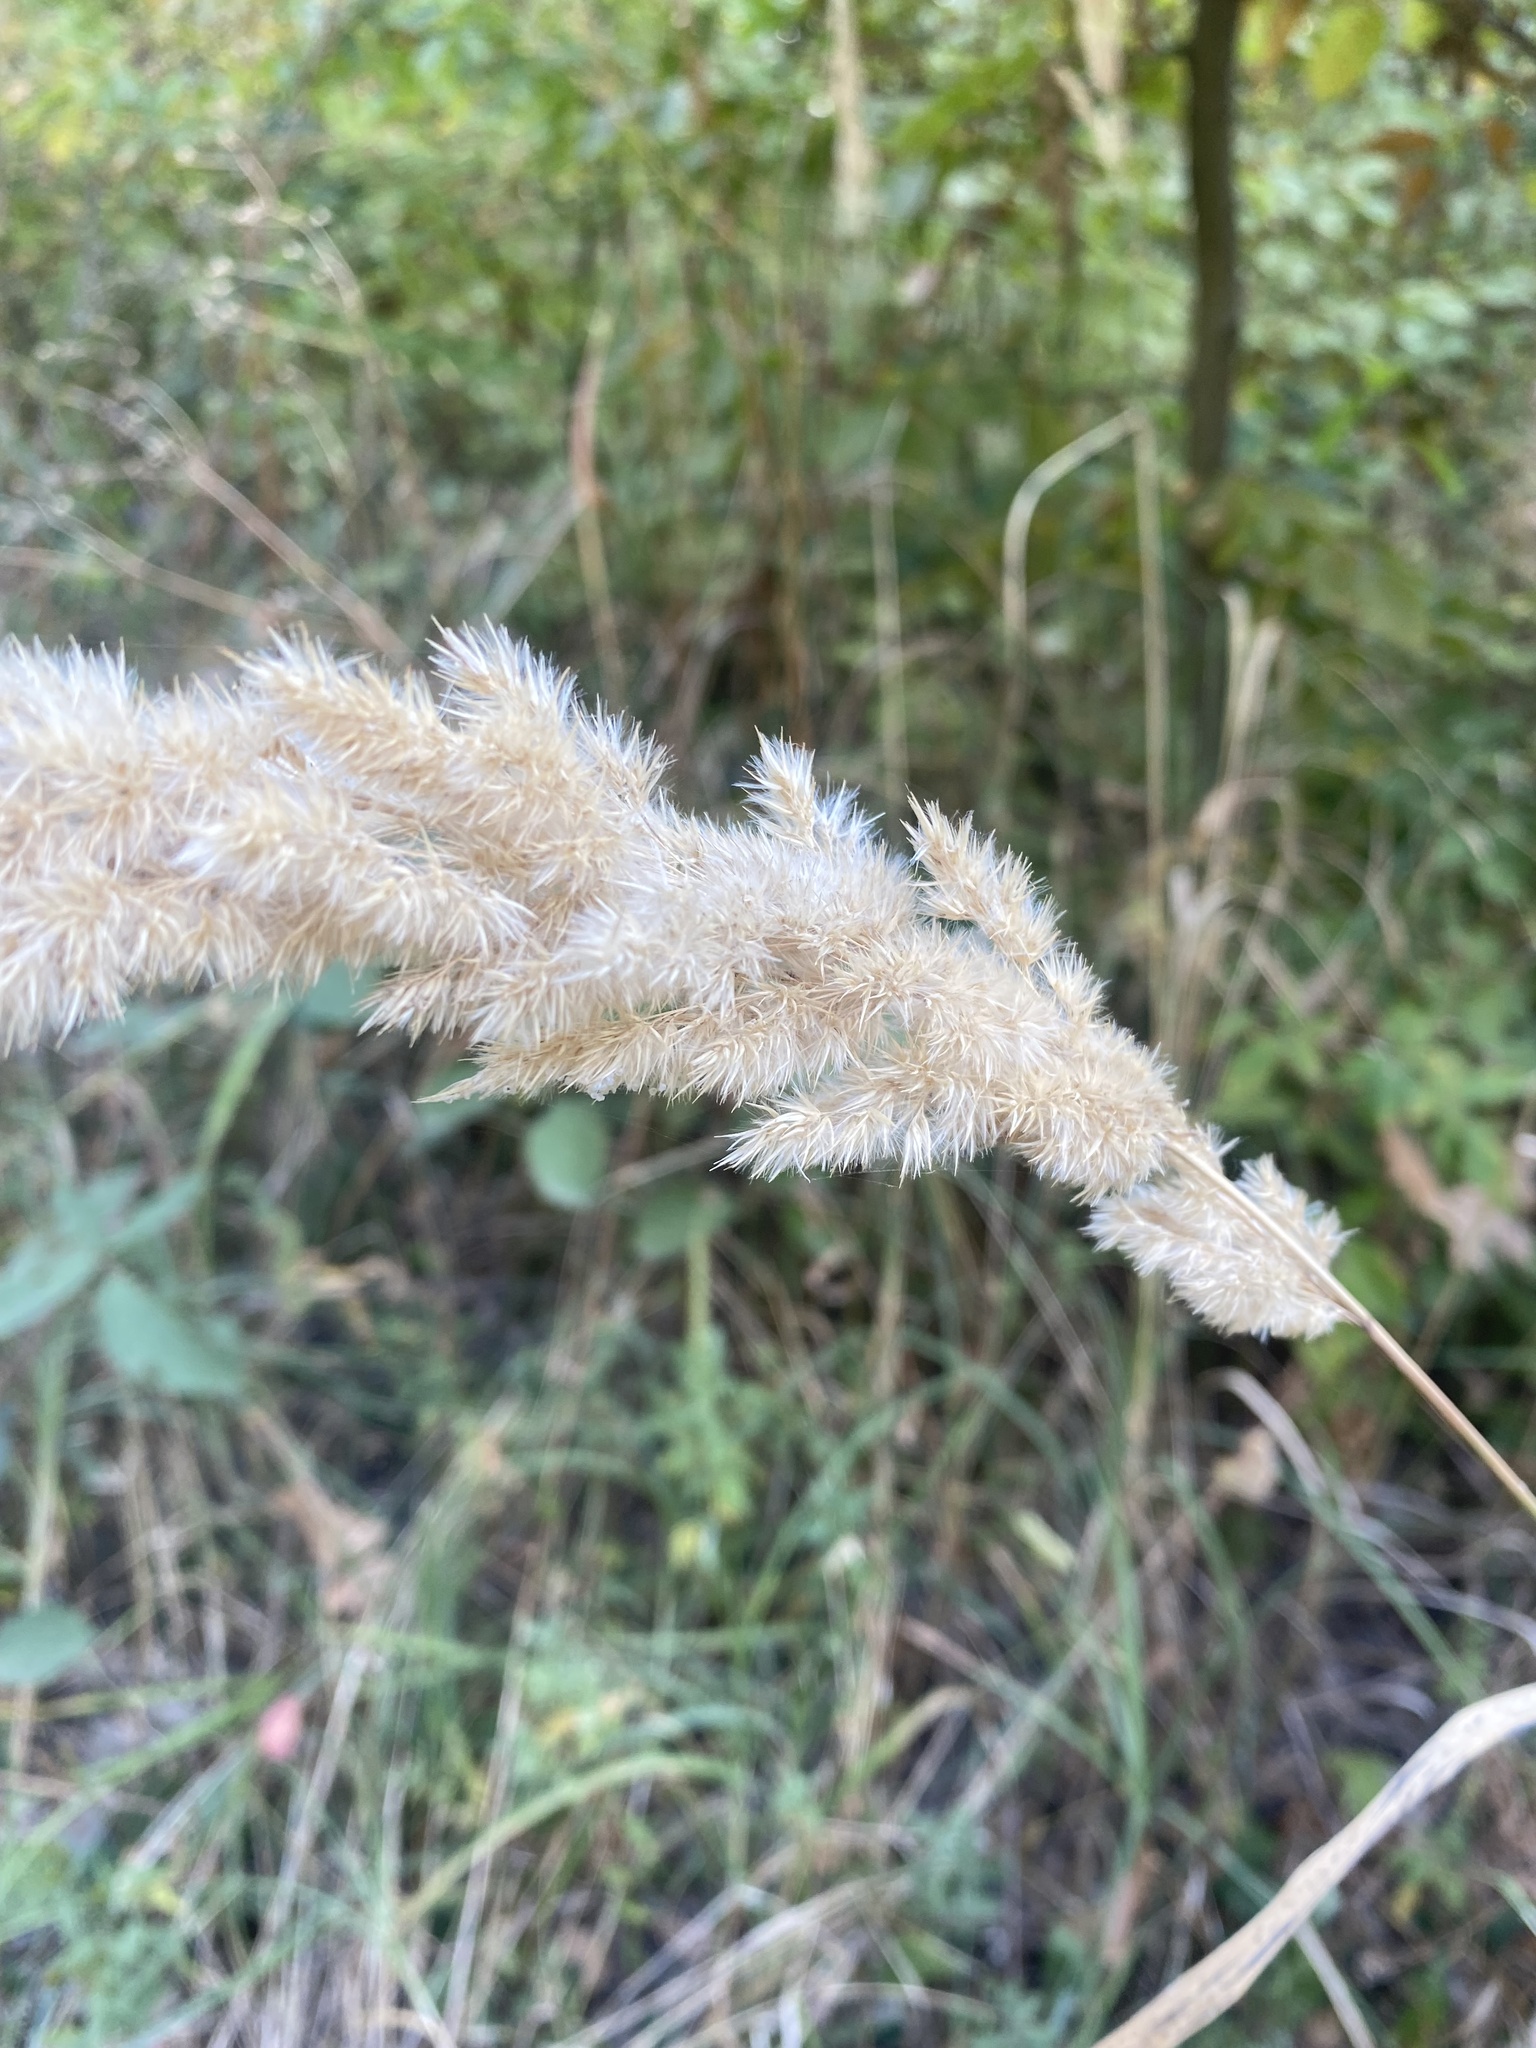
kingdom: Plantae
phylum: Tracheophyta
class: Liliopsida
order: Poales
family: Poaceae
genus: Calamagrostis
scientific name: Calamagrostis epigejos
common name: Wood small-reed
